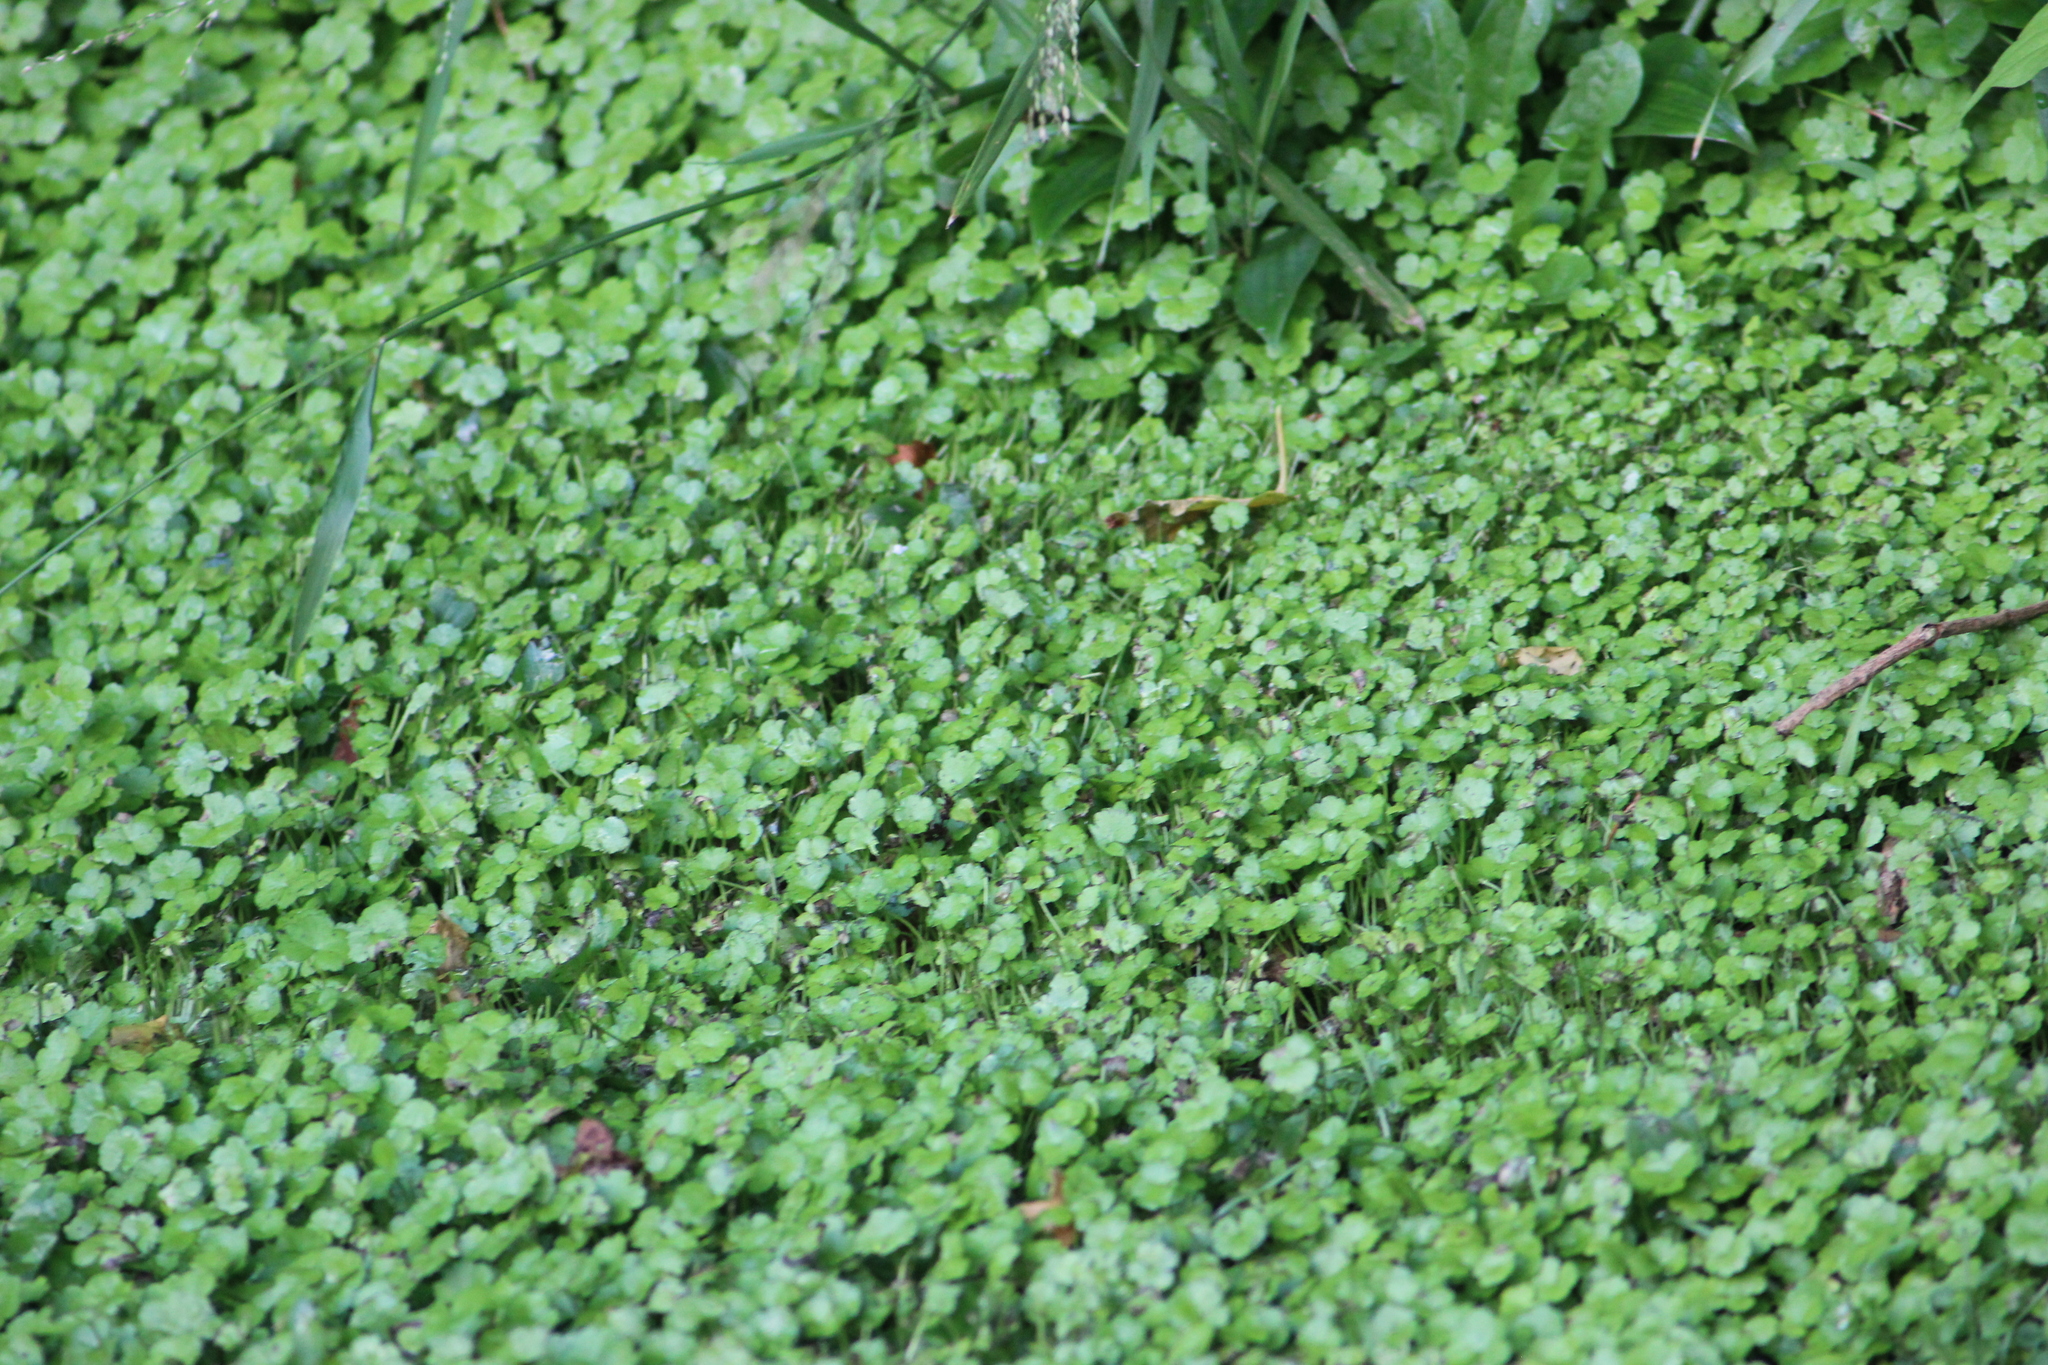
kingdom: Plantae
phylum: Tracheophyta
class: Magnoliopsida
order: Apiales
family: Araliaceae
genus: Hydrocotyle
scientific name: Hydrocotyle heteromeria
